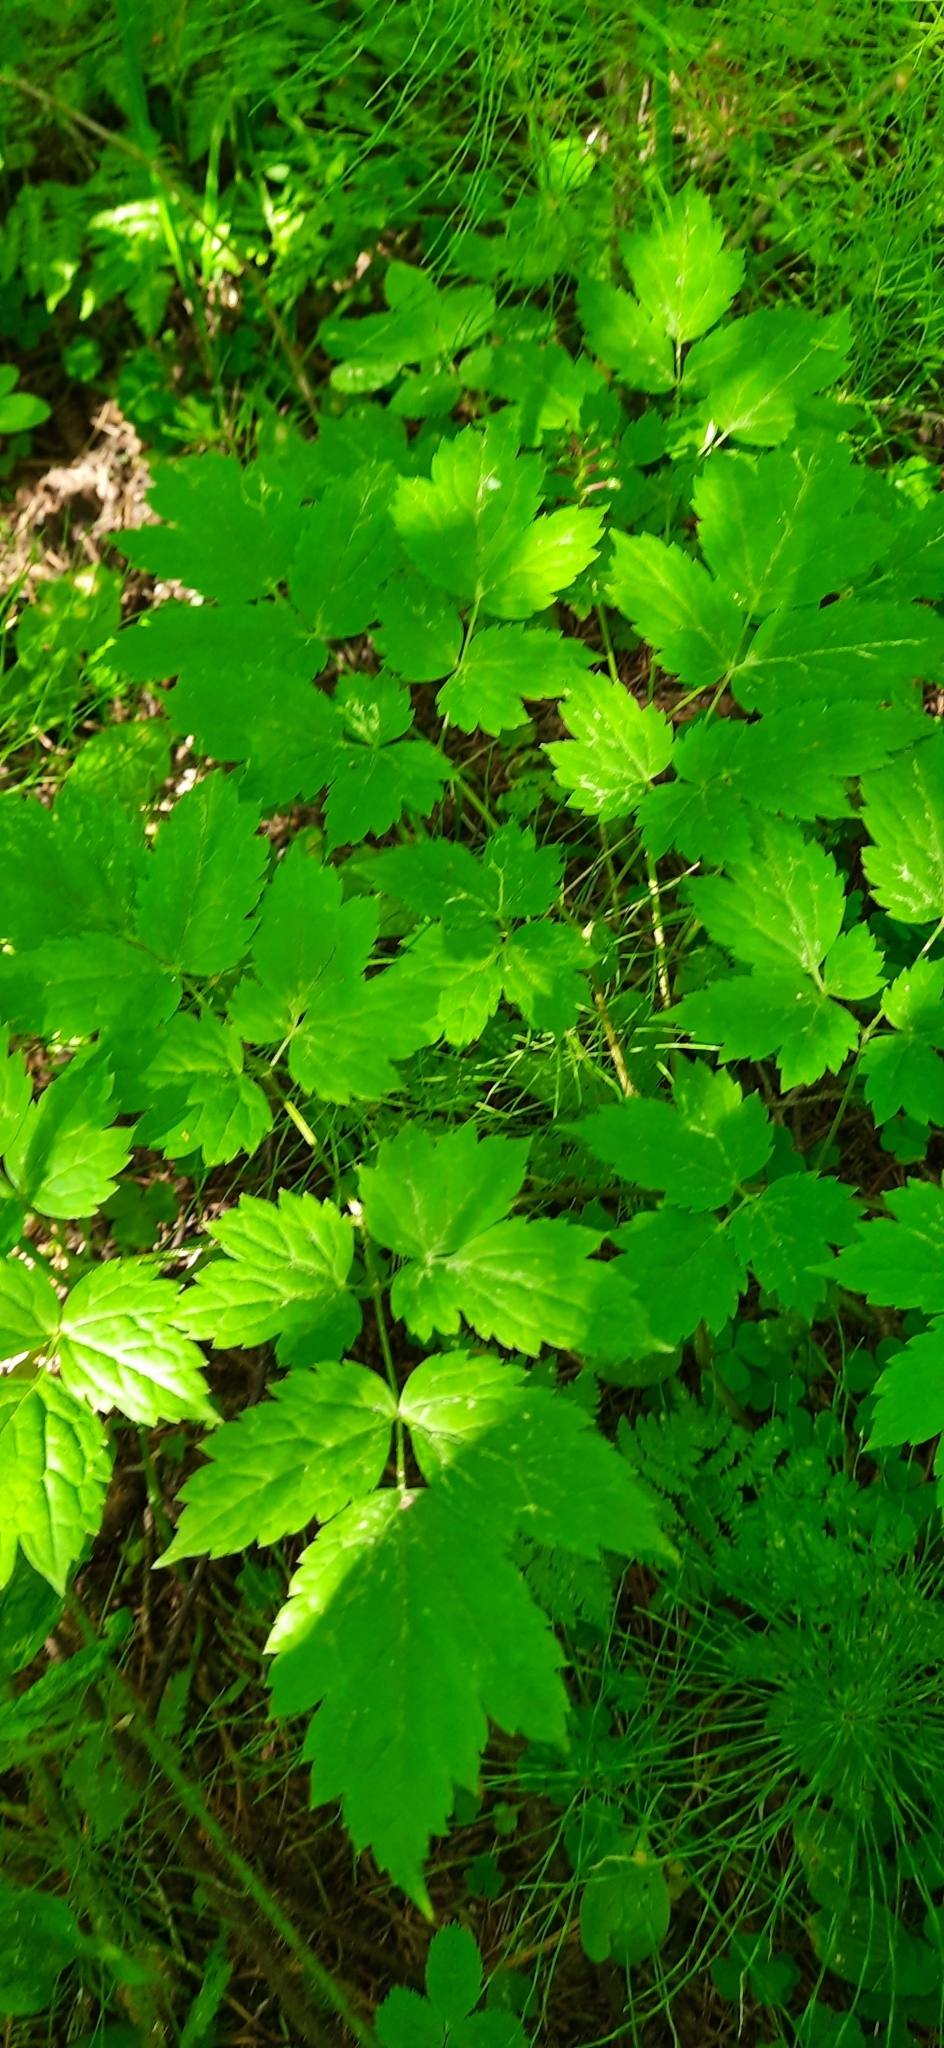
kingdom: Plantae
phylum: Tracheophyta
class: Magnoliopsida
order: Ranunculales
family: Ranunculaceae
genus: Actaea
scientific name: Actaea erythrocarpa
